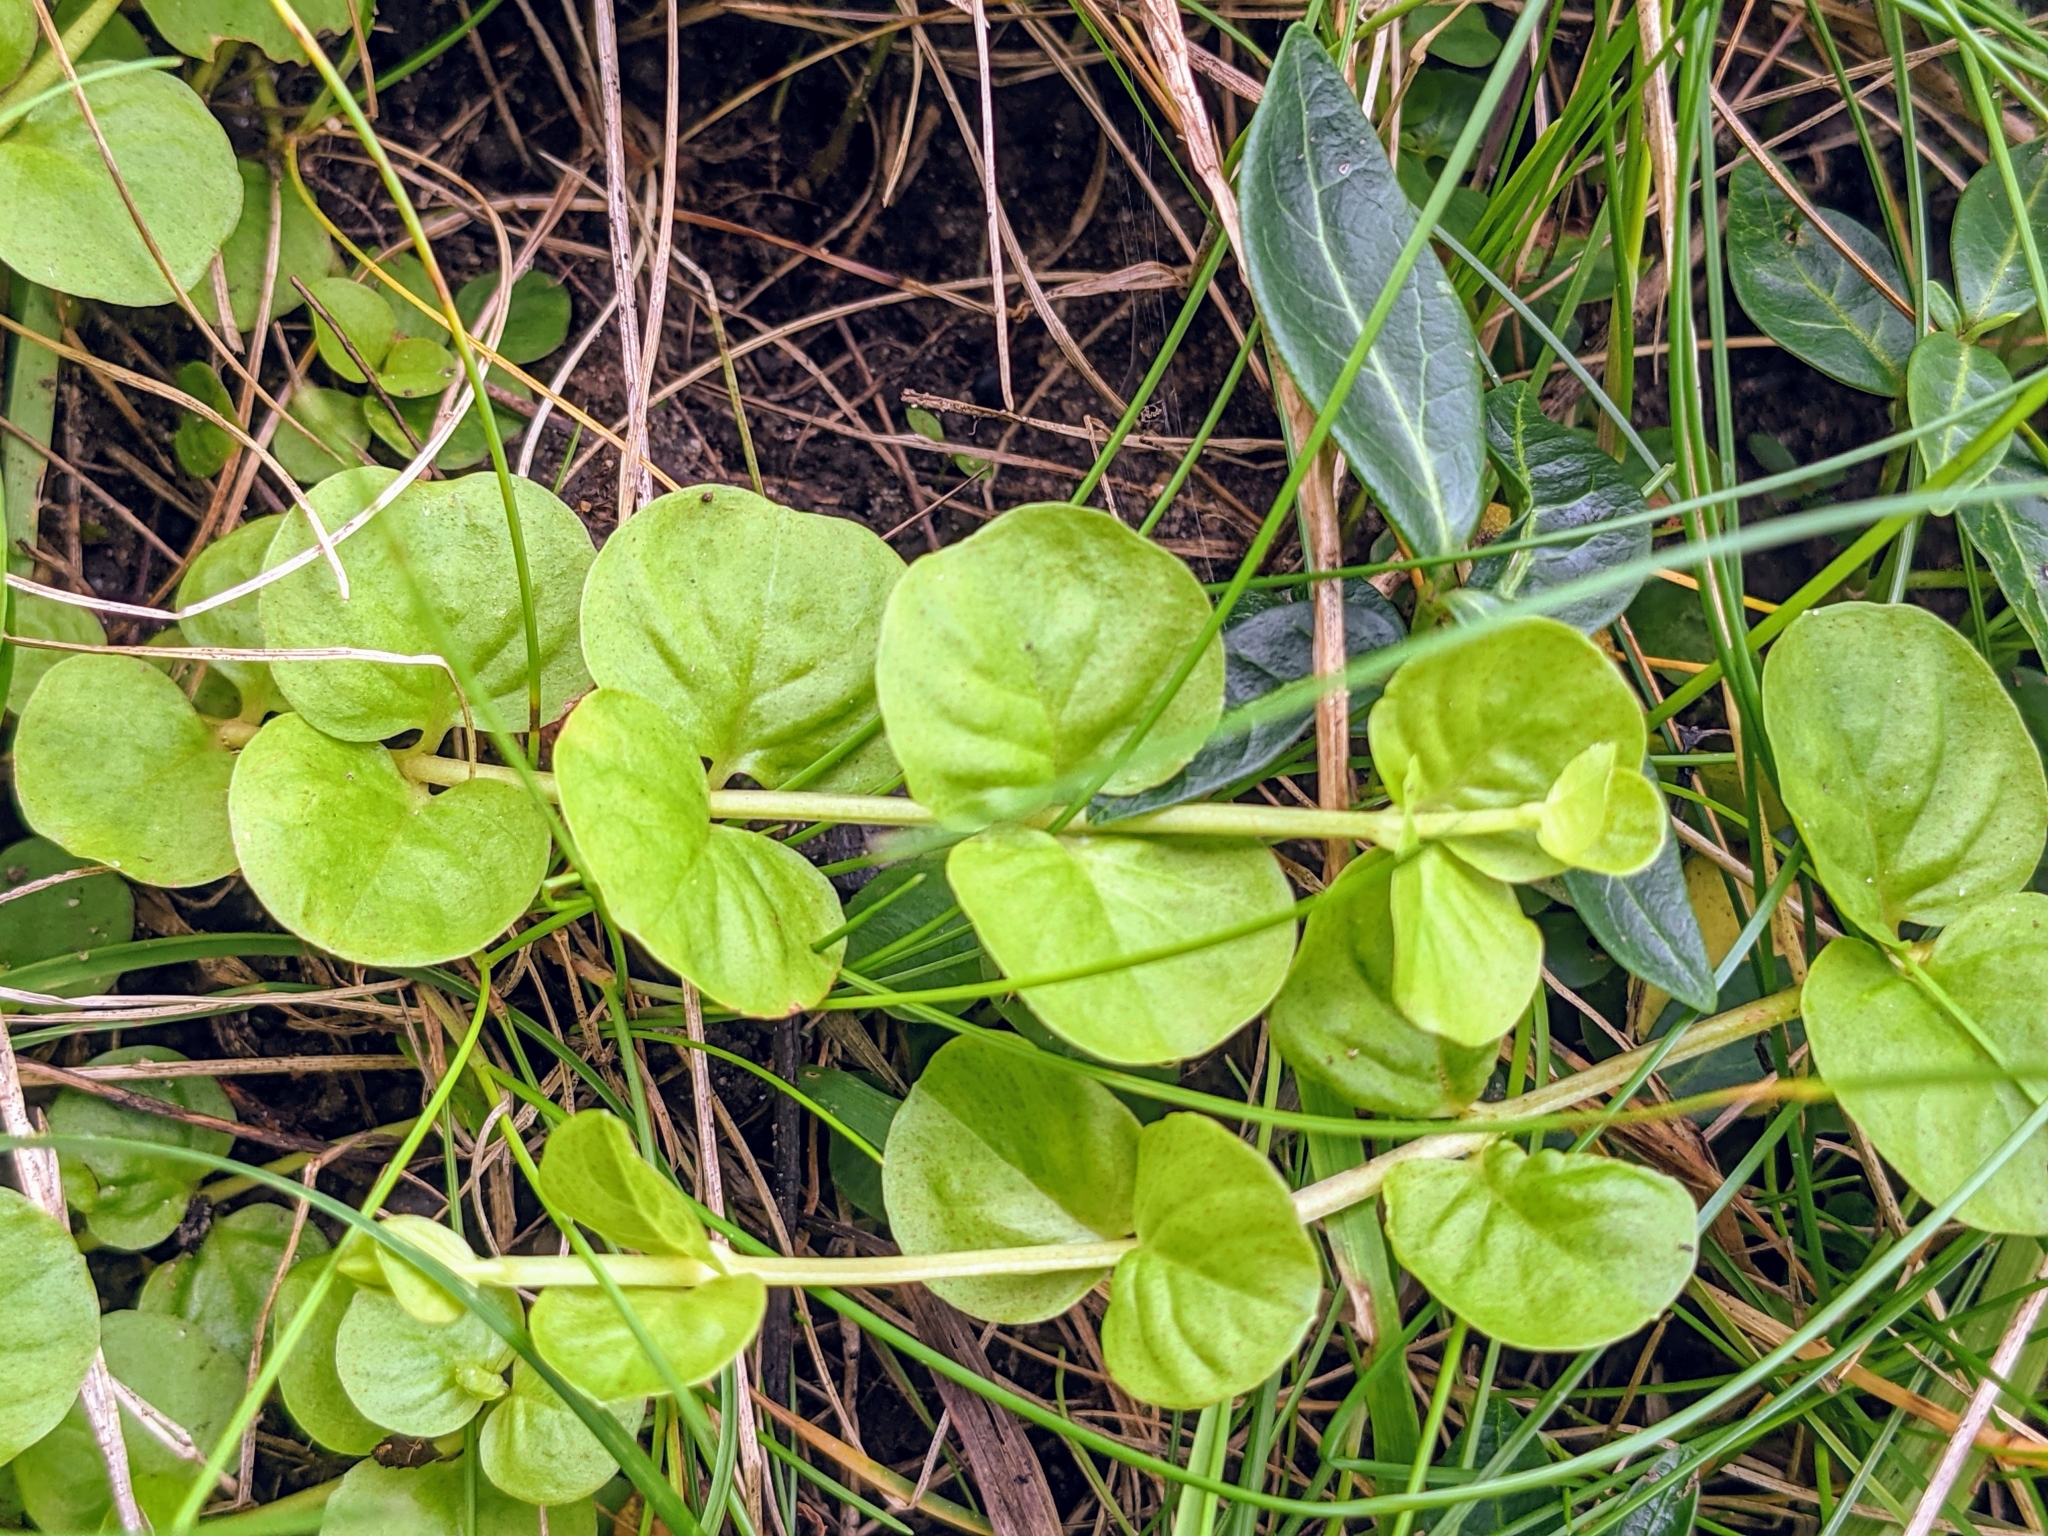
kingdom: Plantae
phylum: Tracheophyta
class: Magnoliopsida
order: Ericales
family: Primulaceae
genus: Lysimachia
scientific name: Lysimachia nummularia
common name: Moneywort
